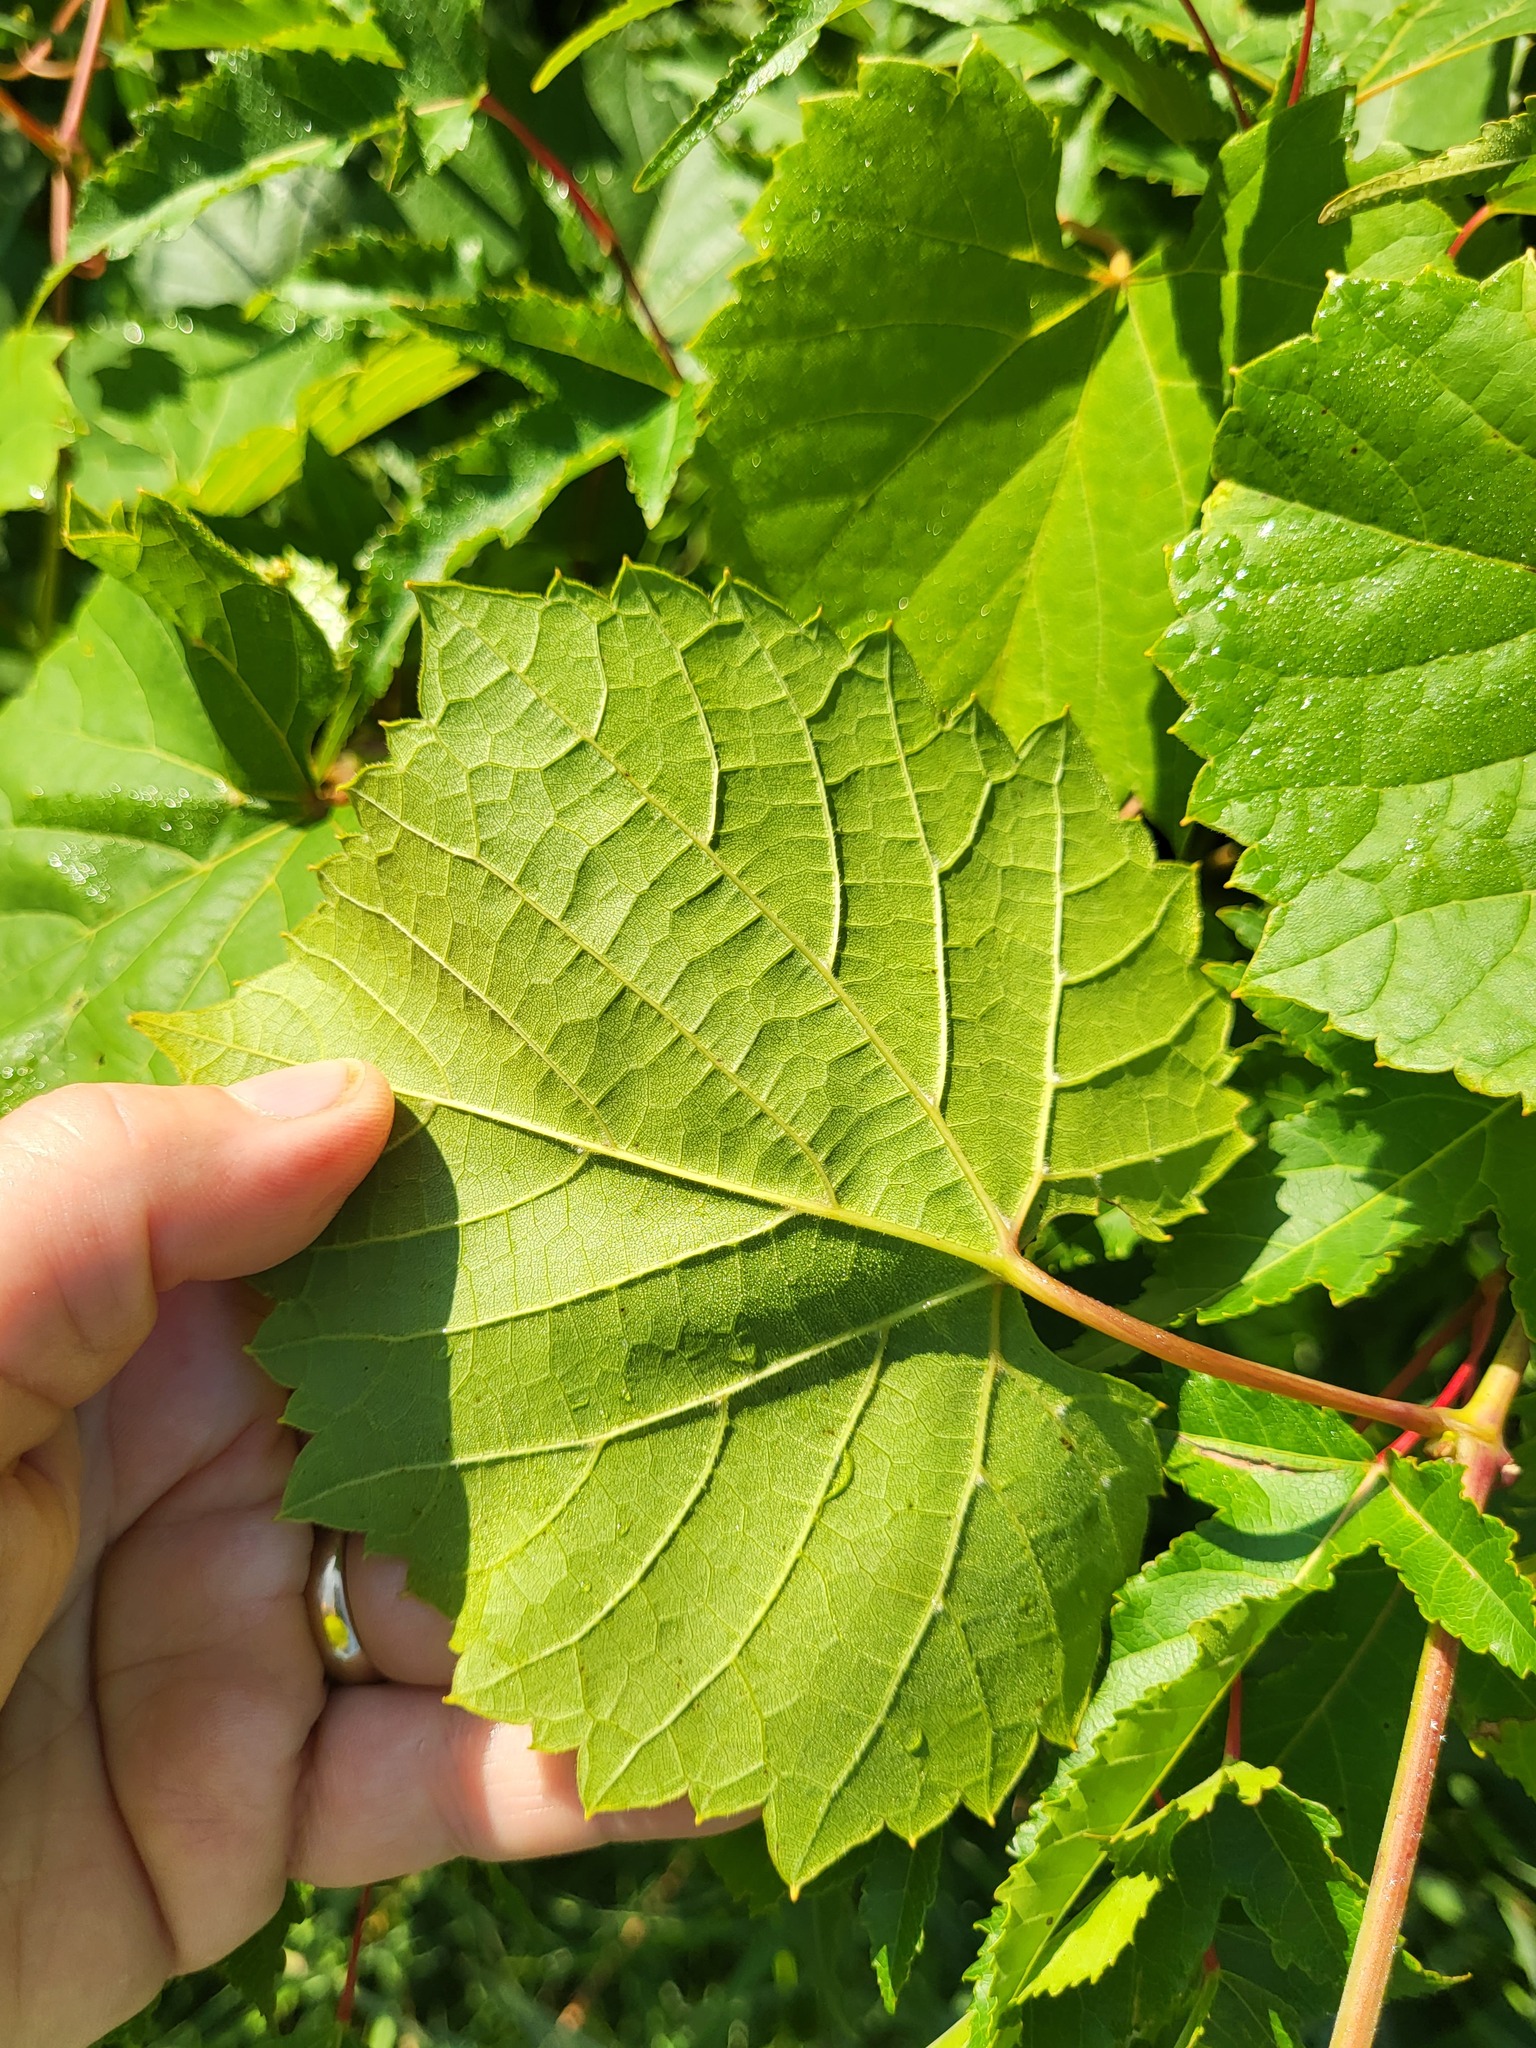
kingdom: Plantae
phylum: Tracheophyta
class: Magnoliopsida
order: Vitales
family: Vitaceae
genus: Vitis
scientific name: Vitis riparia
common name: Frost grape
